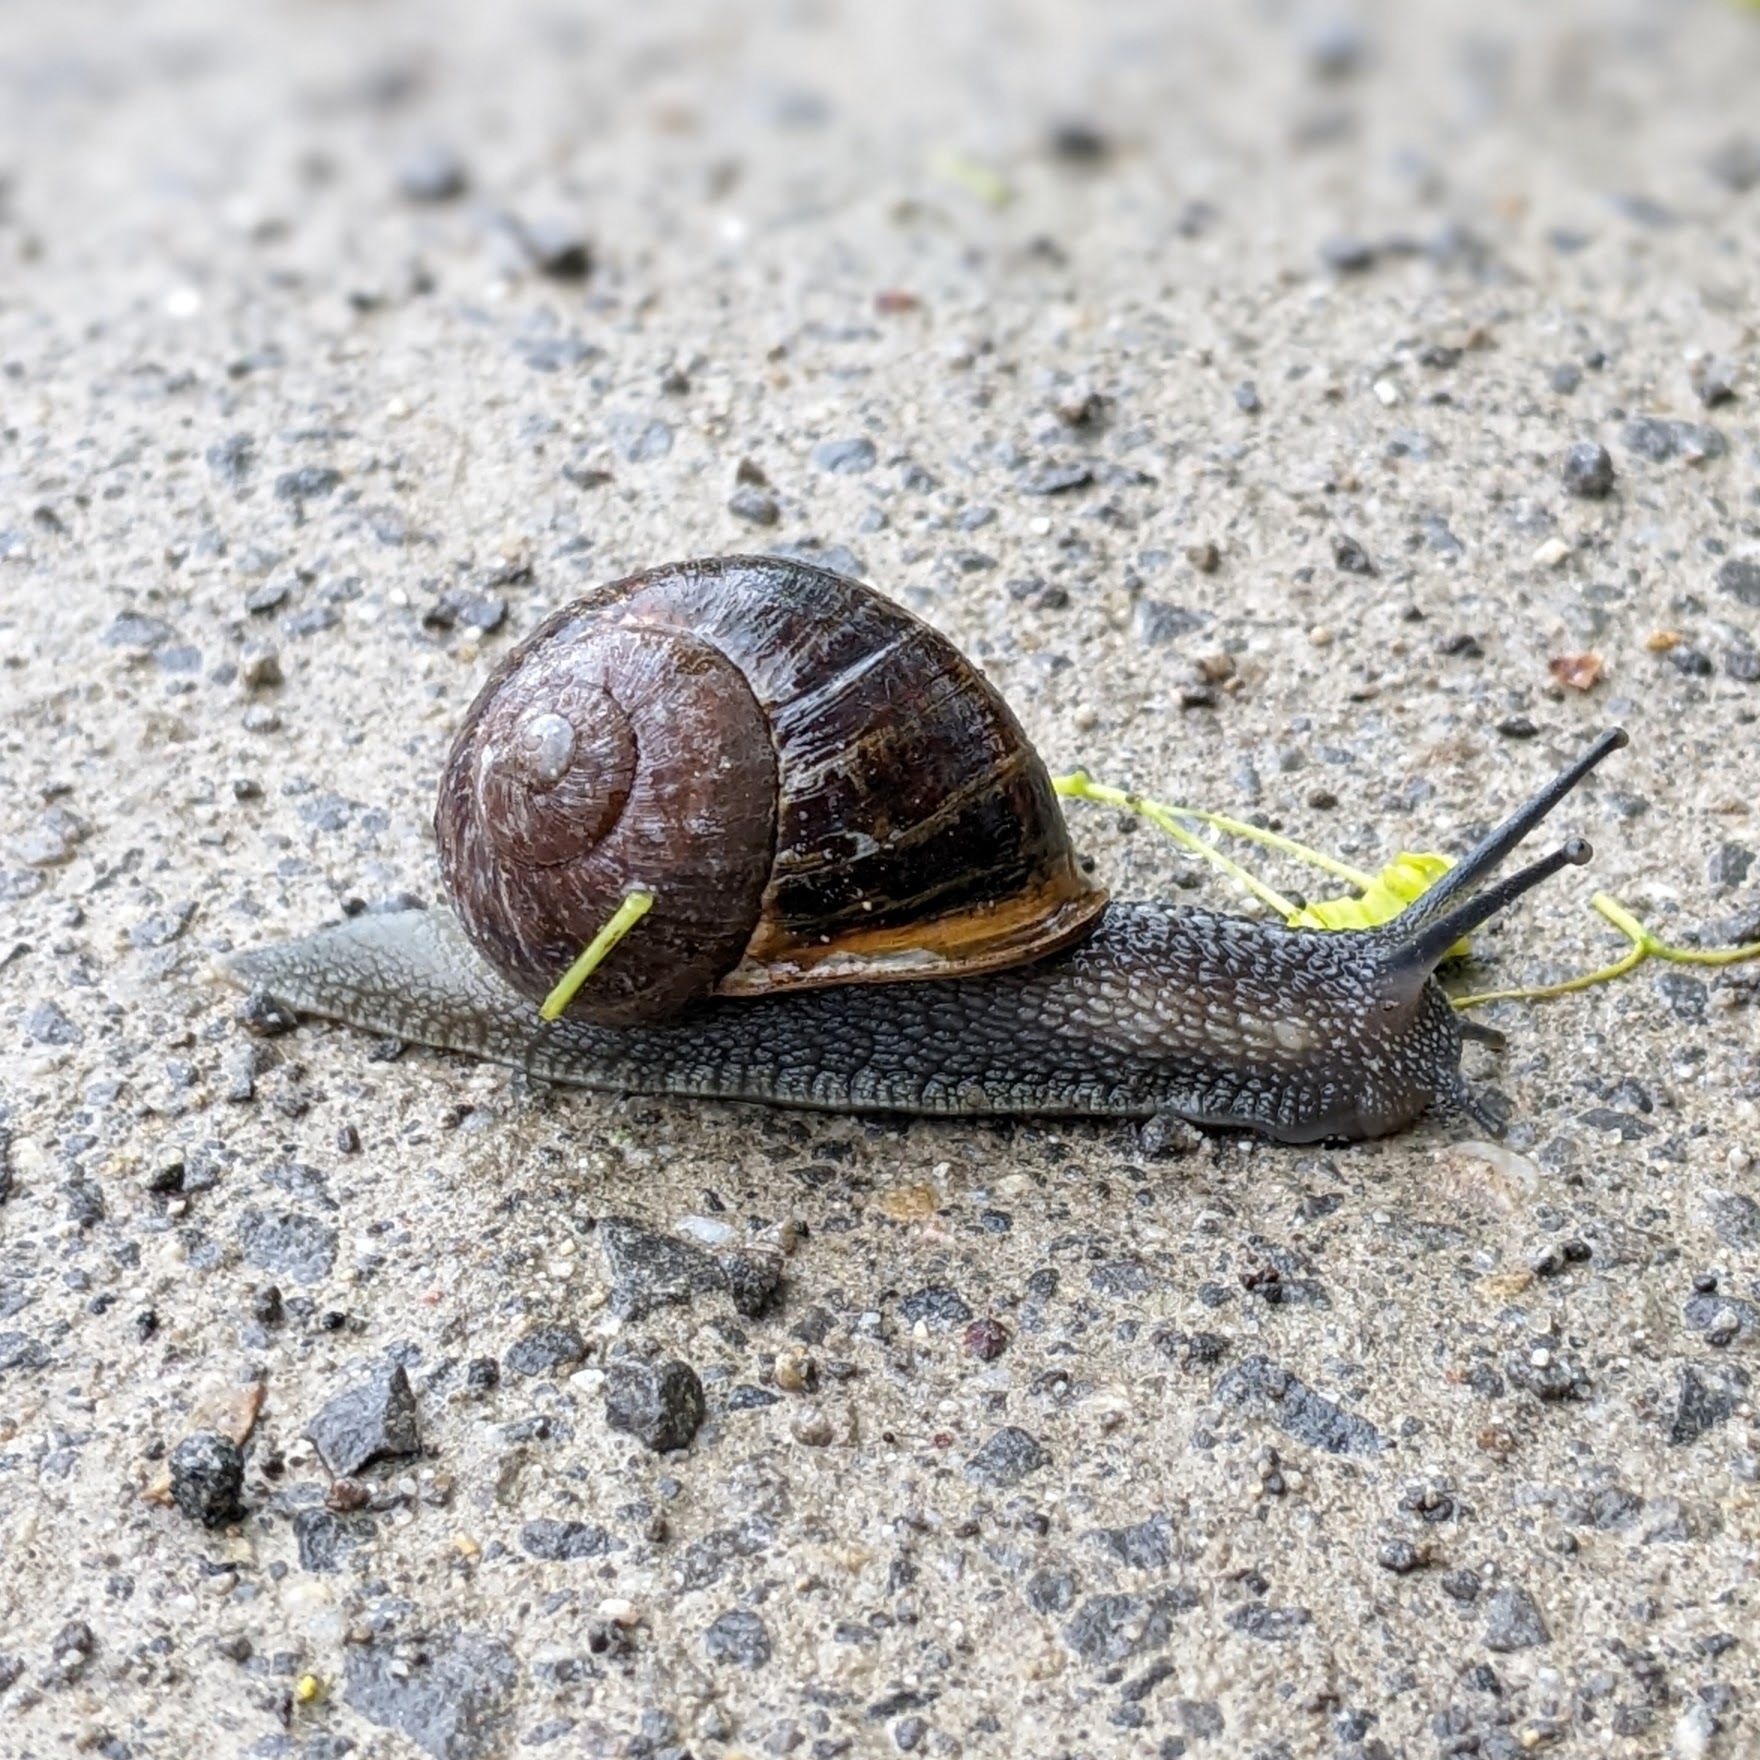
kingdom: Animalia
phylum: Mollusca
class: Gastropoda
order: Stylommatophora
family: Helicidae
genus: Cornu
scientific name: Cornu aspersum
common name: Brown garden snail
